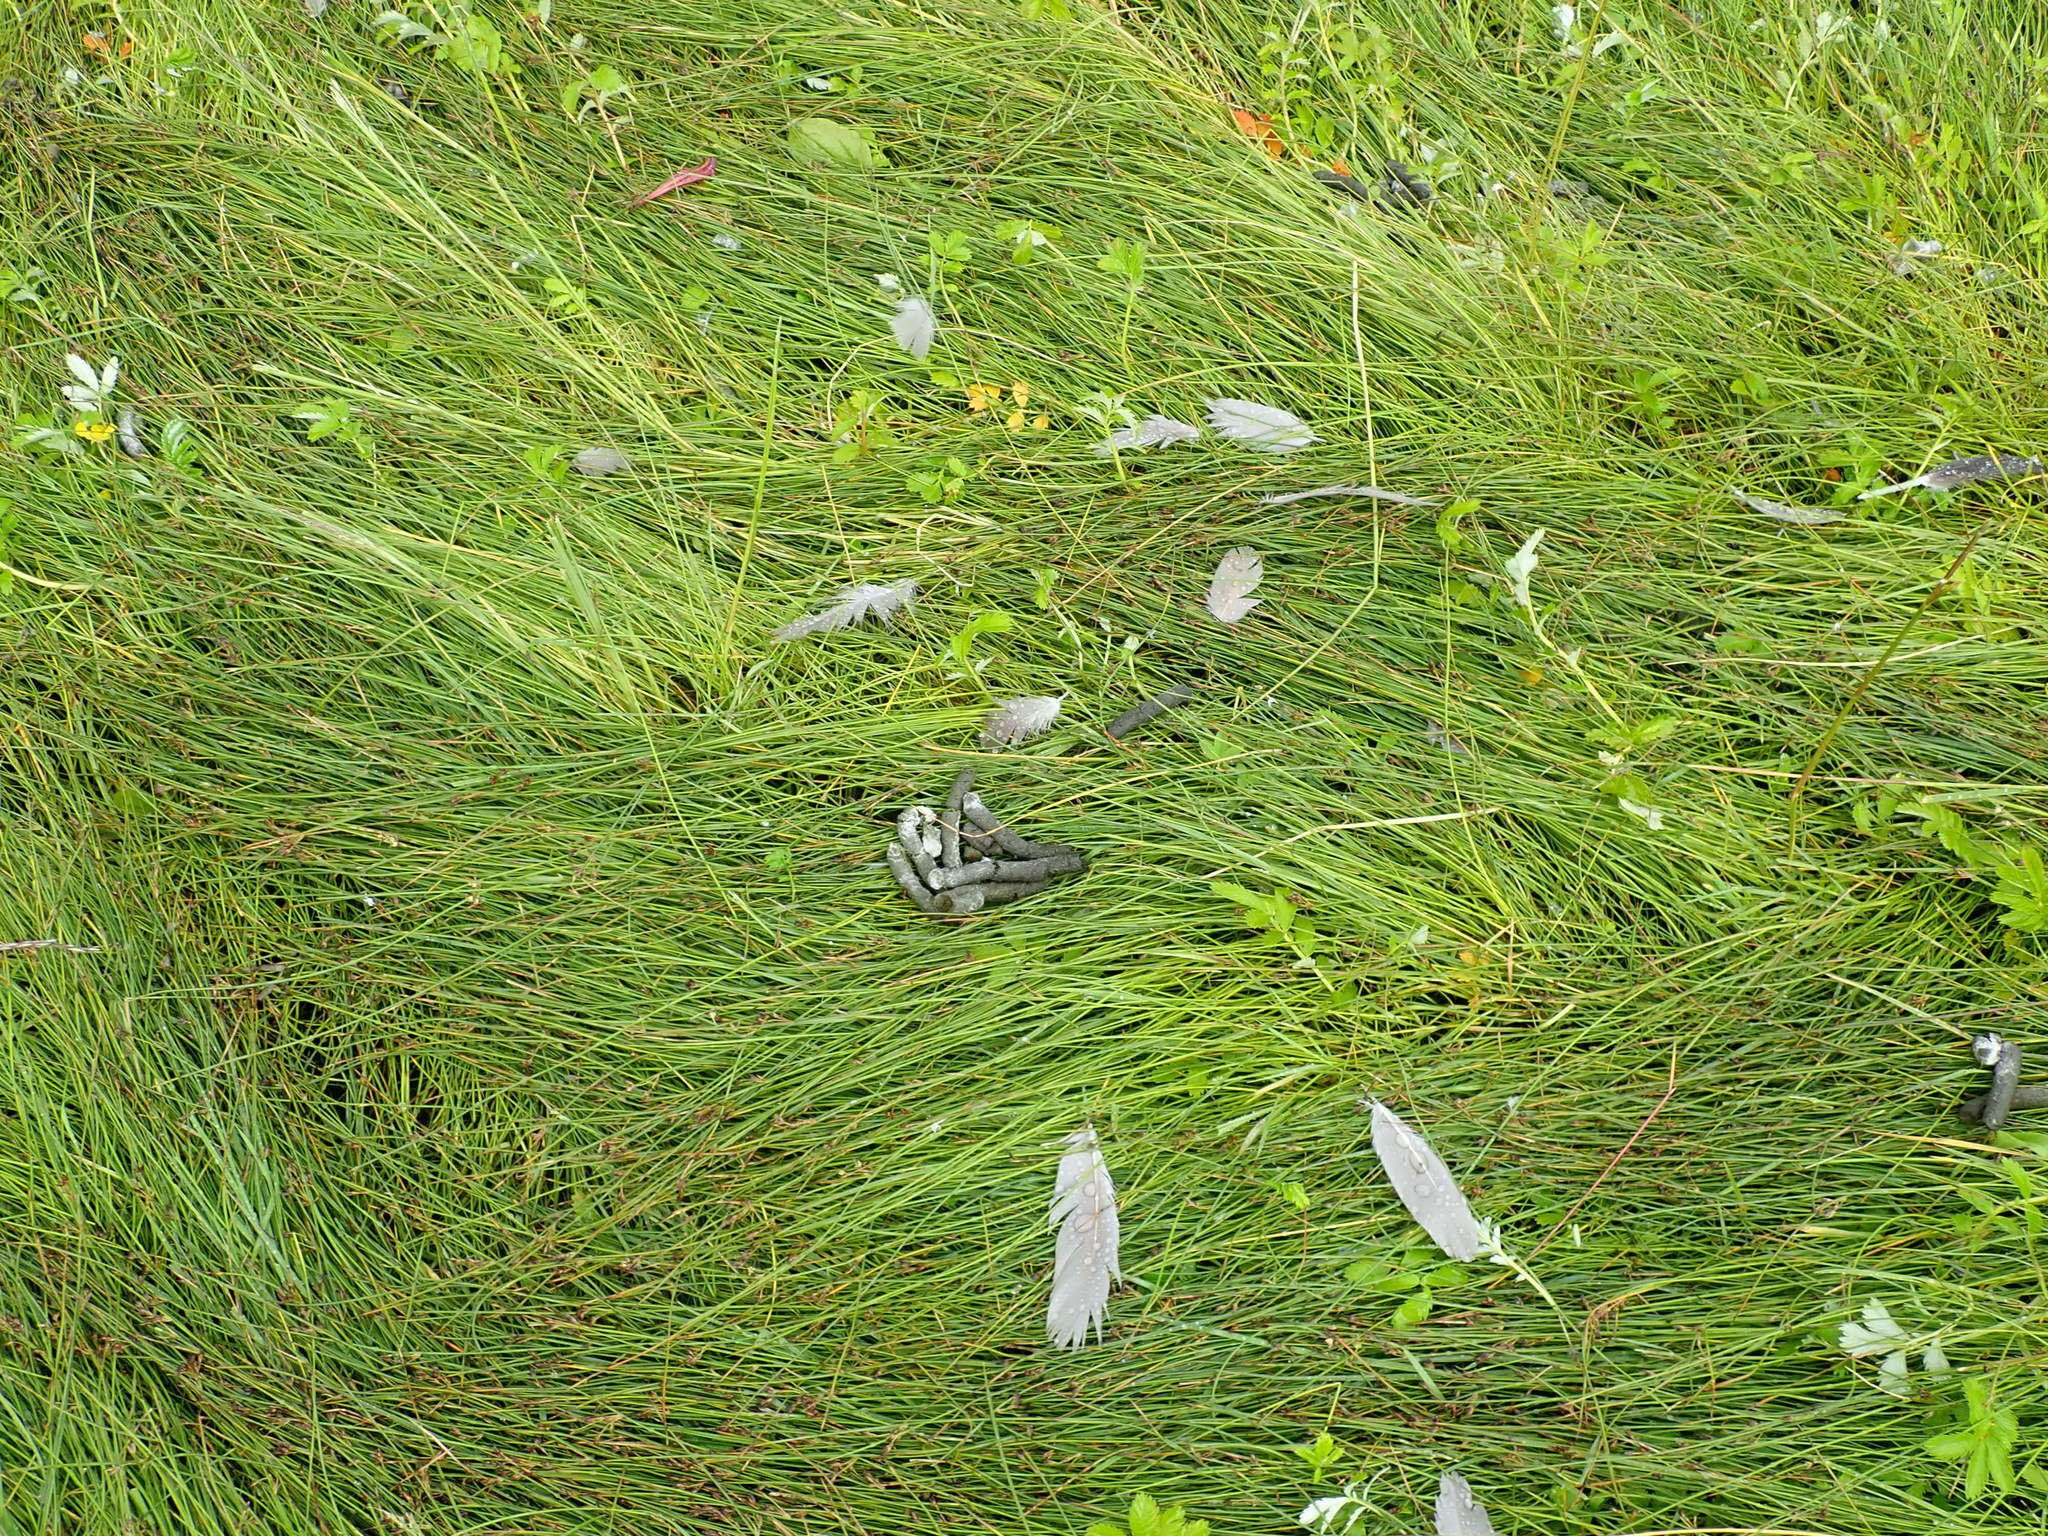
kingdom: Animalia
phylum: Chordata
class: Aves
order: Anseriformes
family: Anatidae
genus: Branta
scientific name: Branta canadensis
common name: Canada goose
